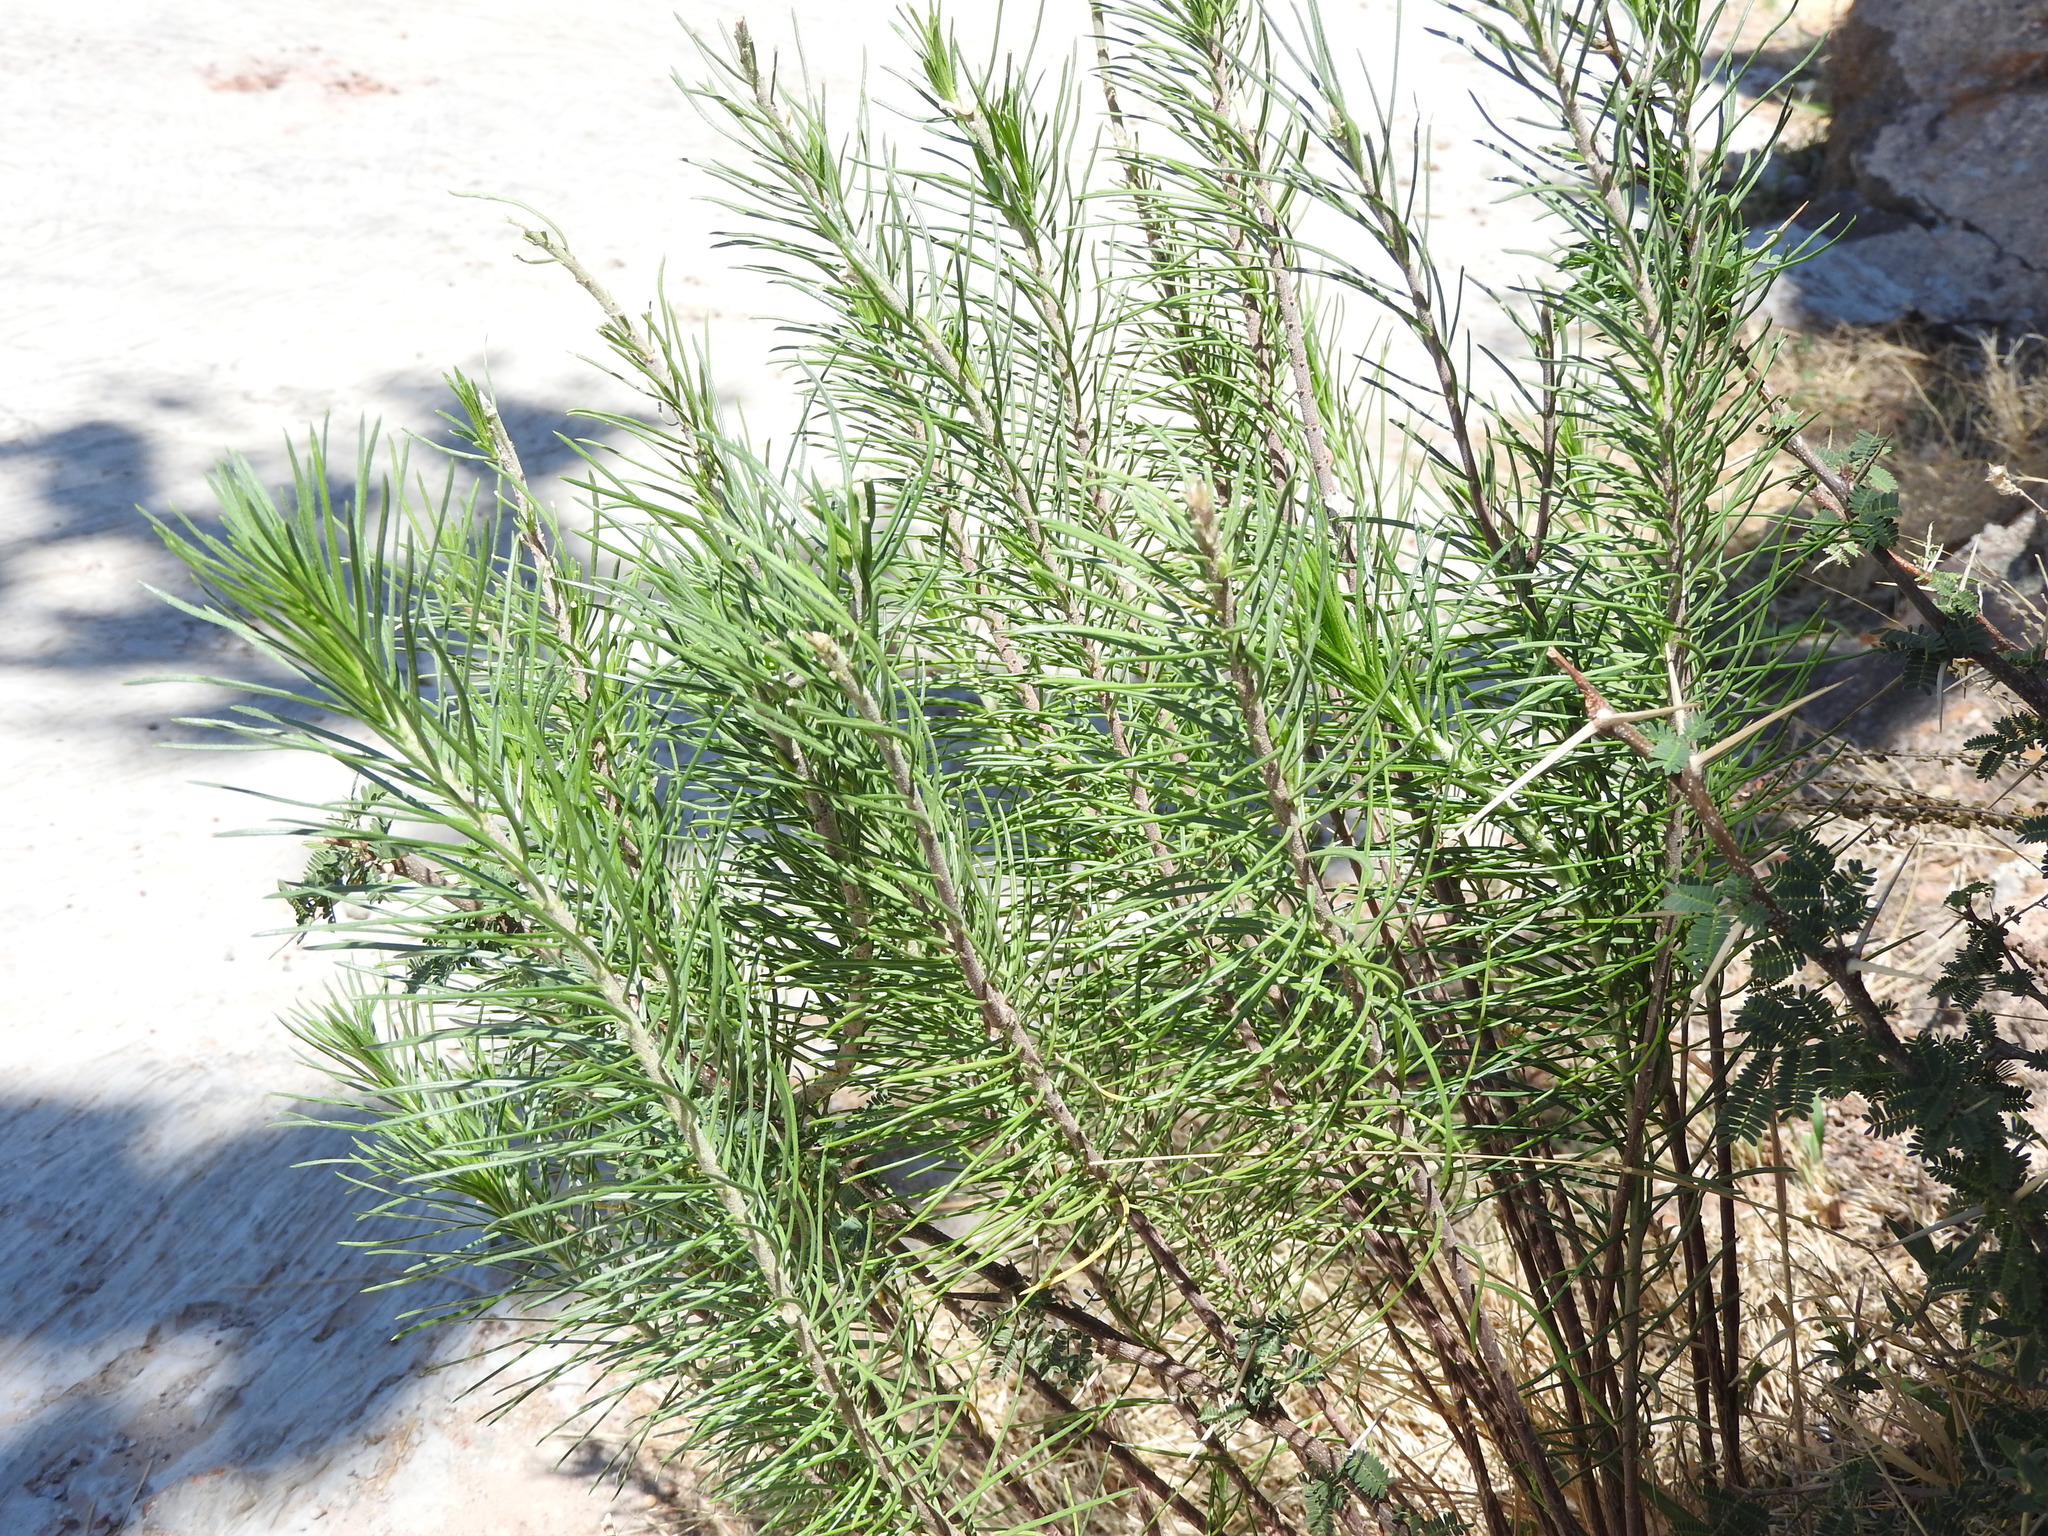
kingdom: Plantae
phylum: Tracheophyta
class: Magnoliopsida
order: Gentianales
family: Apocynaceae
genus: Asclepias
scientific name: Asclepias linaria
